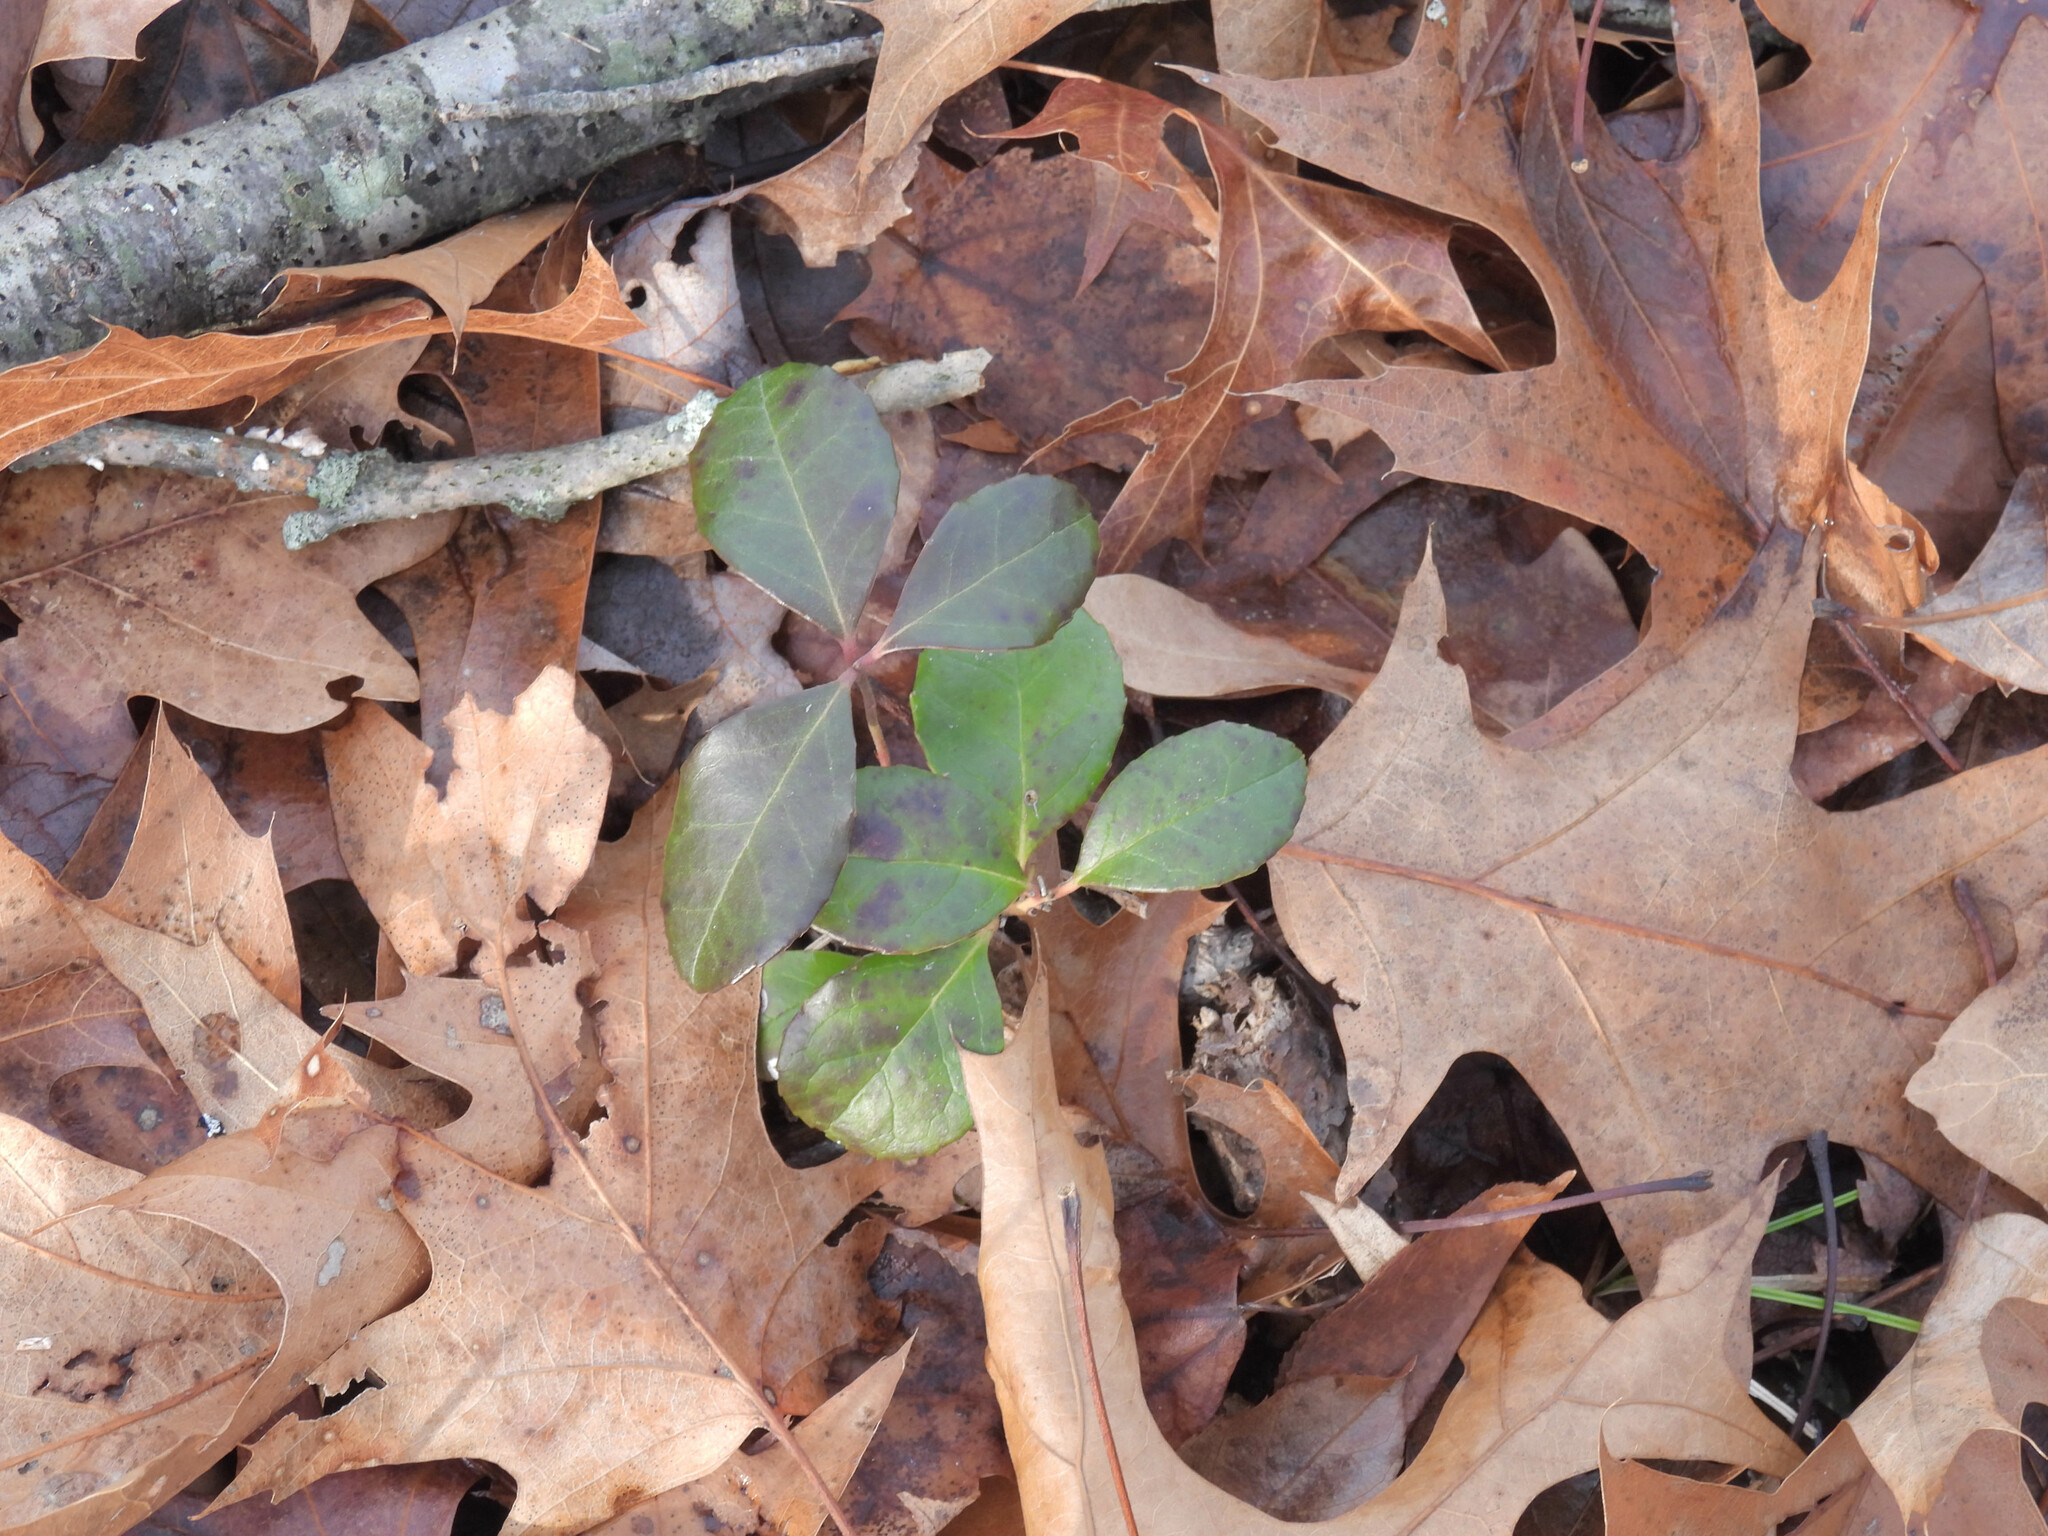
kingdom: Plantae
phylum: Tracheophyta
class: Magnoliopsida
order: Ericales
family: Ericaceae
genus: Gaultheria
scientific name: Gaultheria procumbens
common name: Checkerberry
